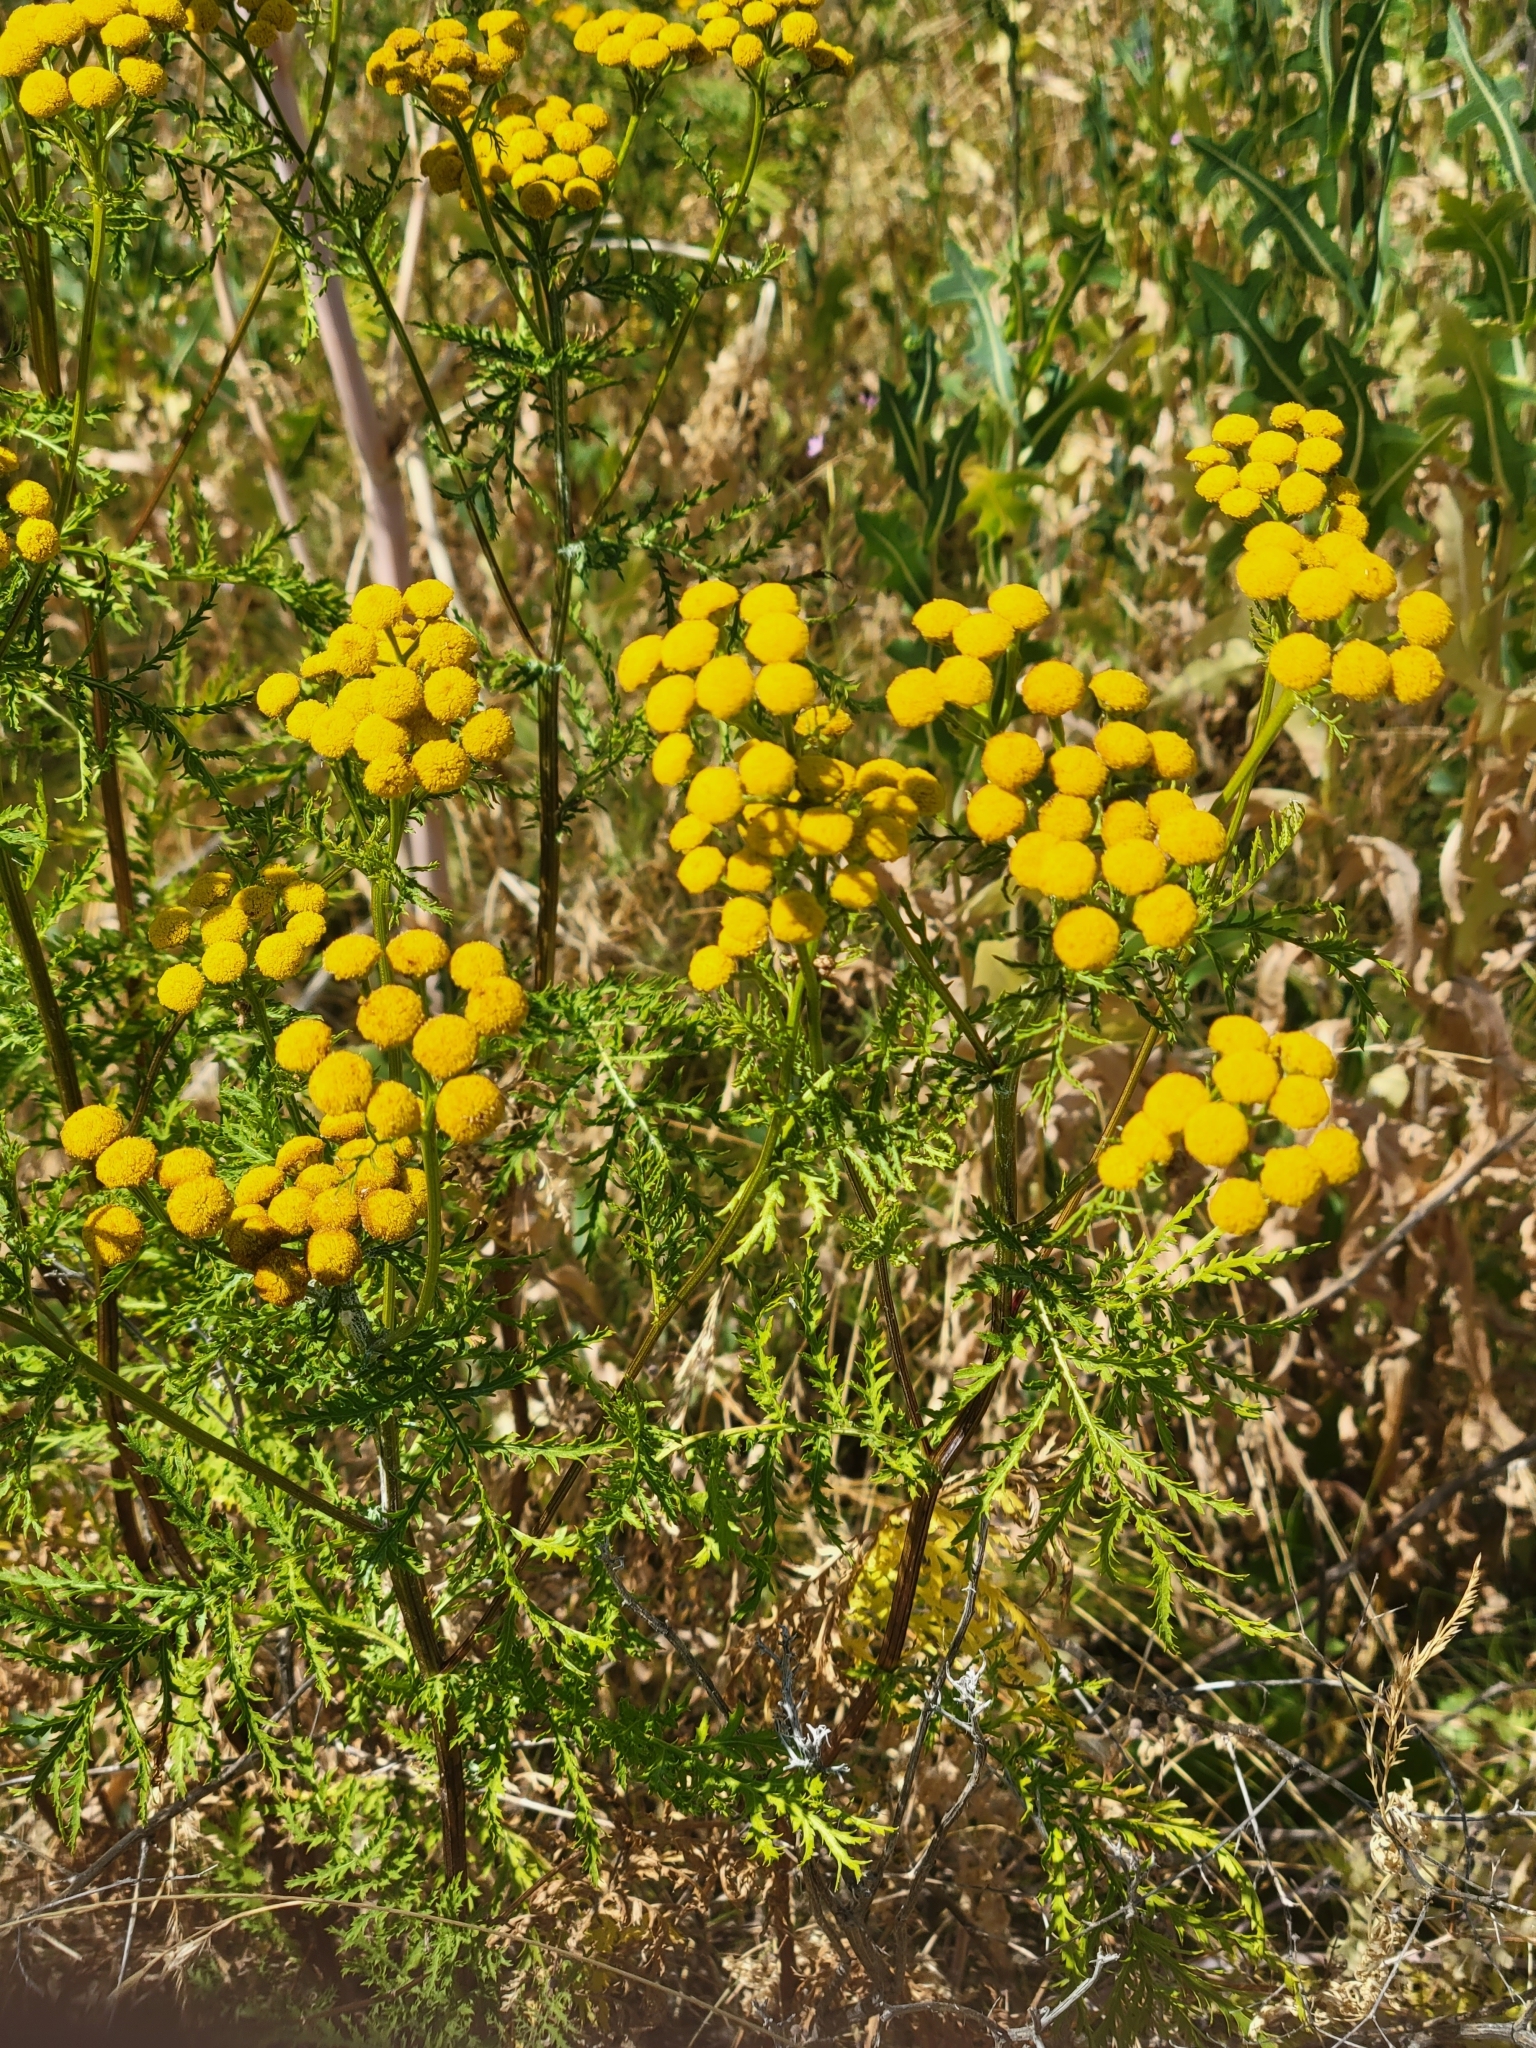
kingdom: Plantae
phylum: Tracheophyta
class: Magnoliopsida
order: Asterales
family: Asteraceae
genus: Tanacetum
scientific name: Tanacetum vulgare
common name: Common tansy
